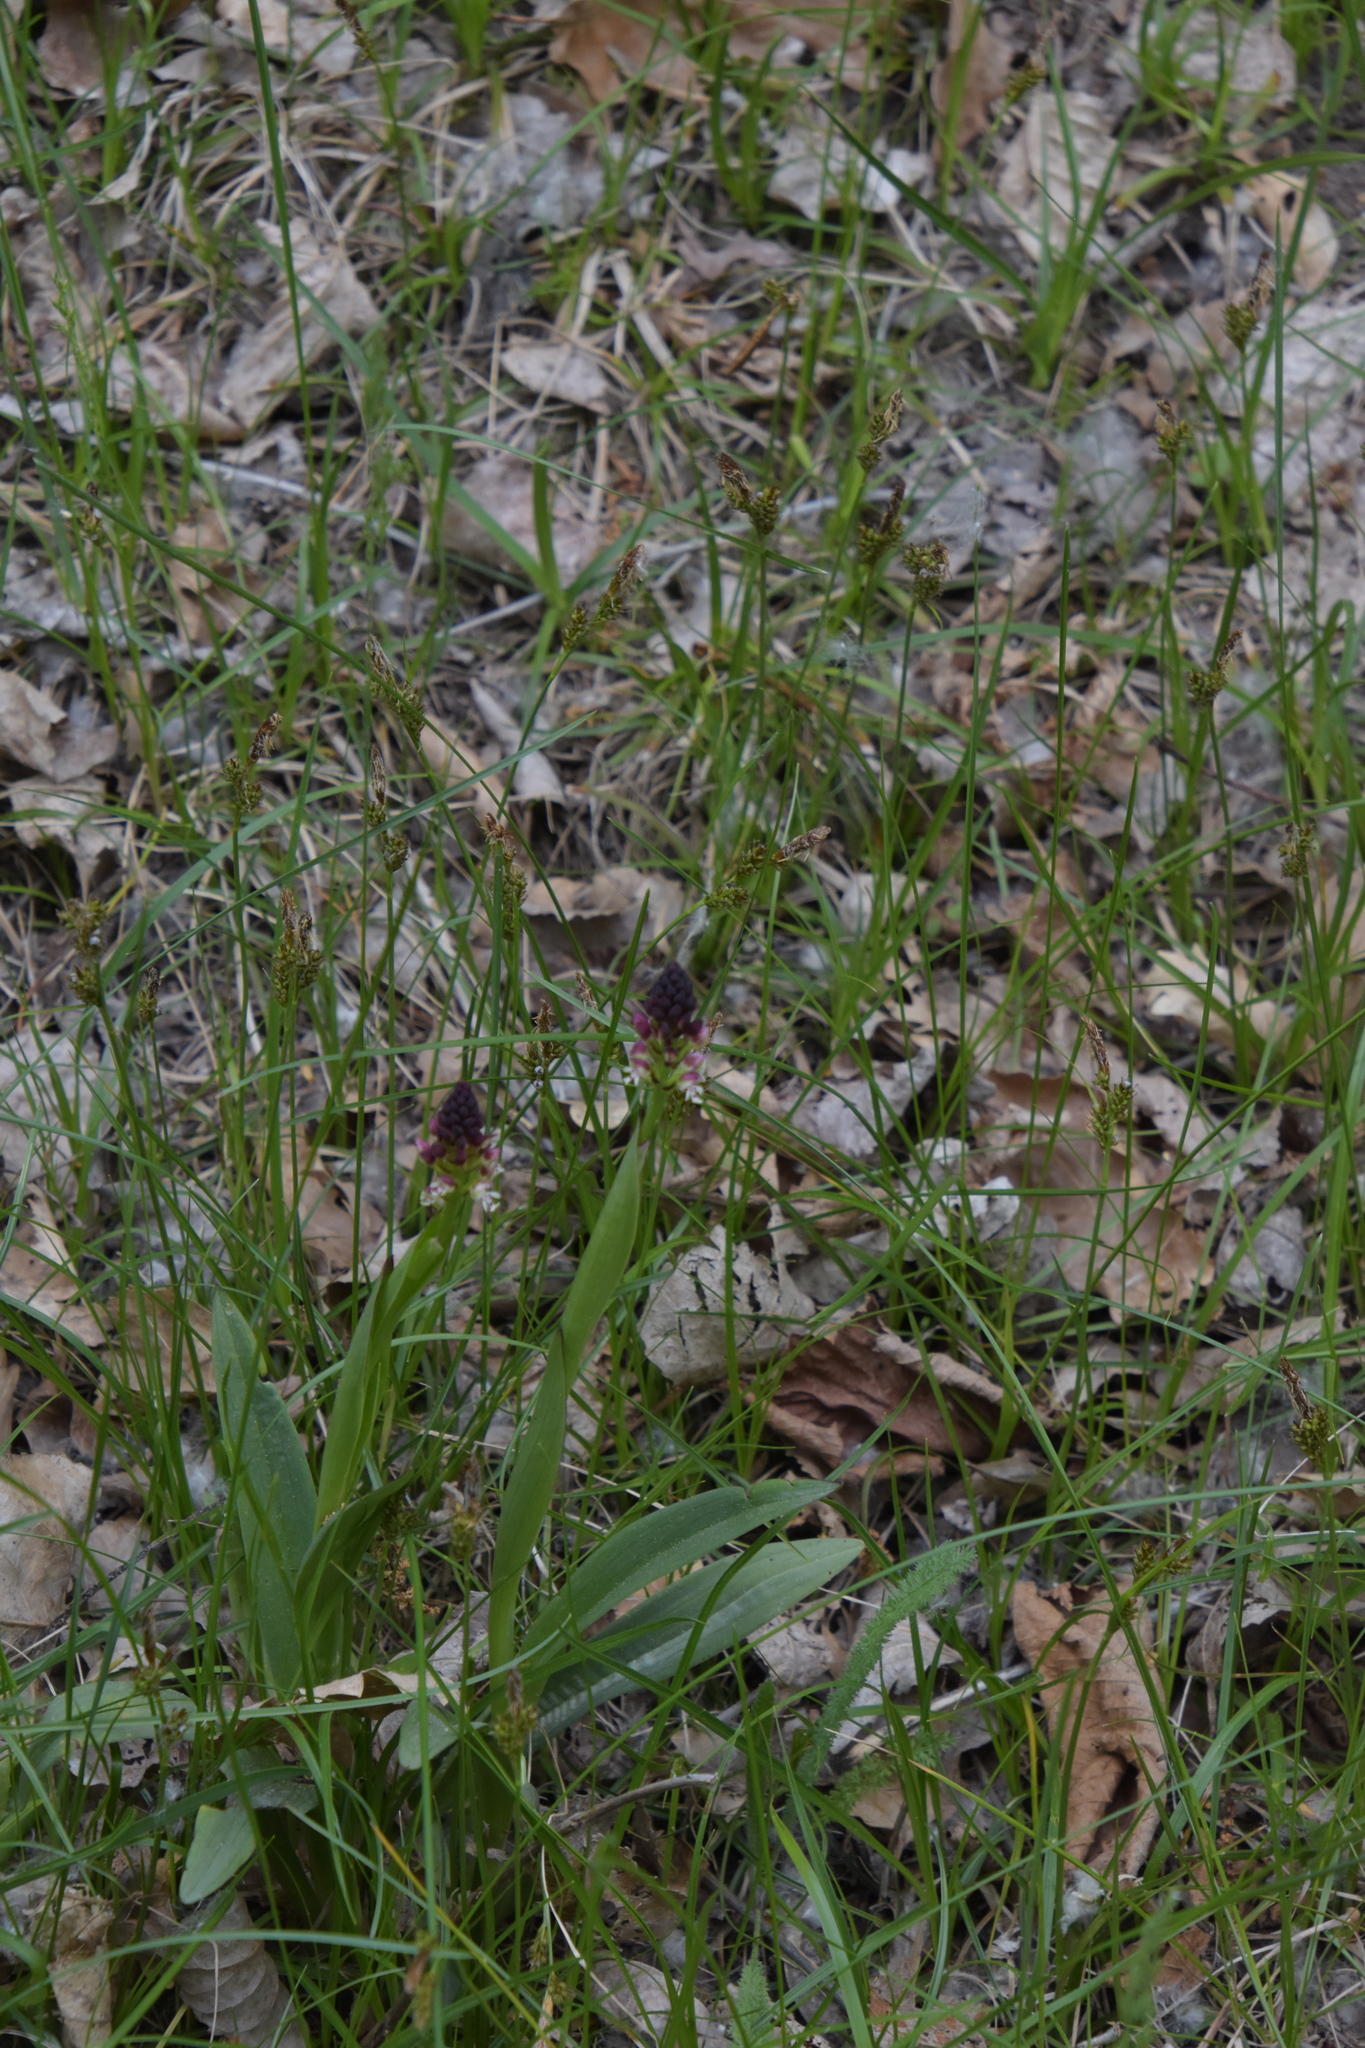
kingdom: Plantae
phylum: Tracheophyta
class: Liliopsida
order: Asparagales
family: Orchidaceae
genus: Neotinea
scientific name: Neotinea ustulata
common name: Burnt orchid
